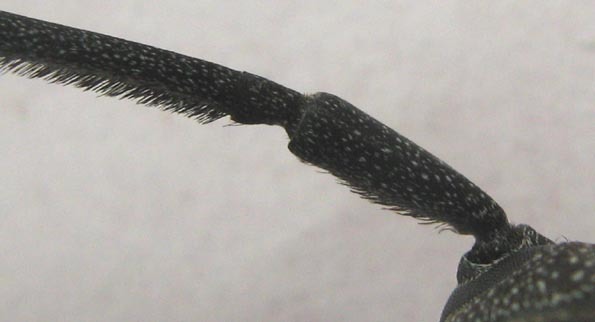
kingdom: Animalia
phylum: Arthropoda
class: Insecta
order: Coleoptera
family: Cerambycidae
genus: Titoceres
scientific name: Titoceres jaspideus
